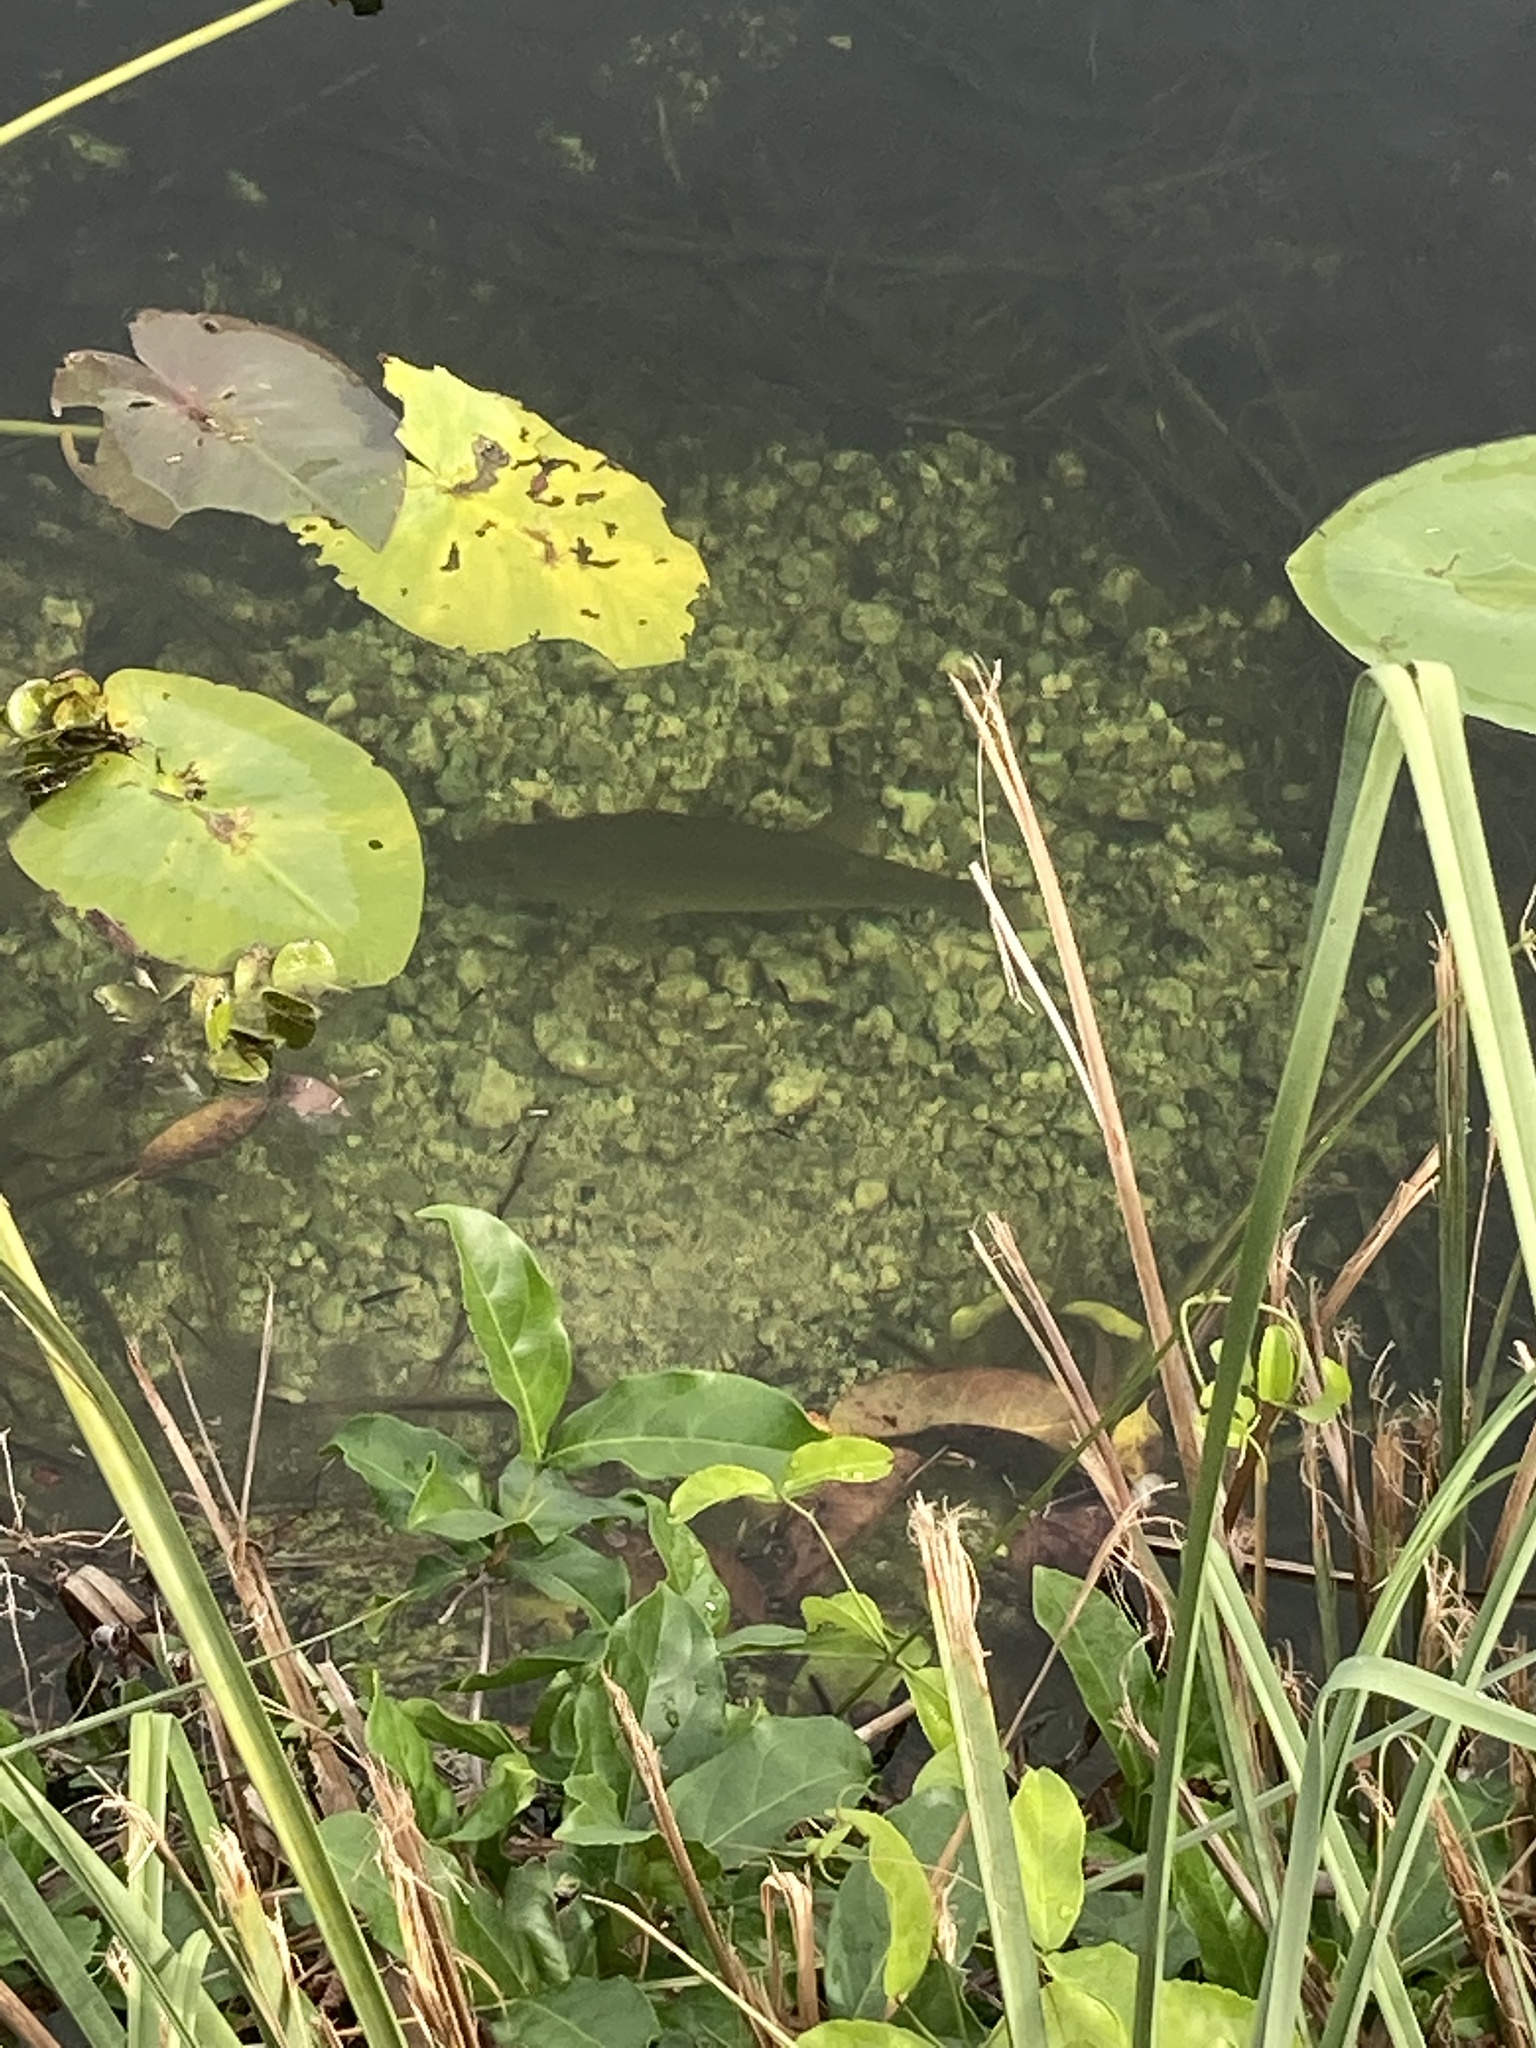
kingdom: Animalia
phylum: Chordata
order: Perciformes
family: Centrarchidae
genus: Micropterus
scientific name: Micropterus salmoides
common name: Largemouth bass
